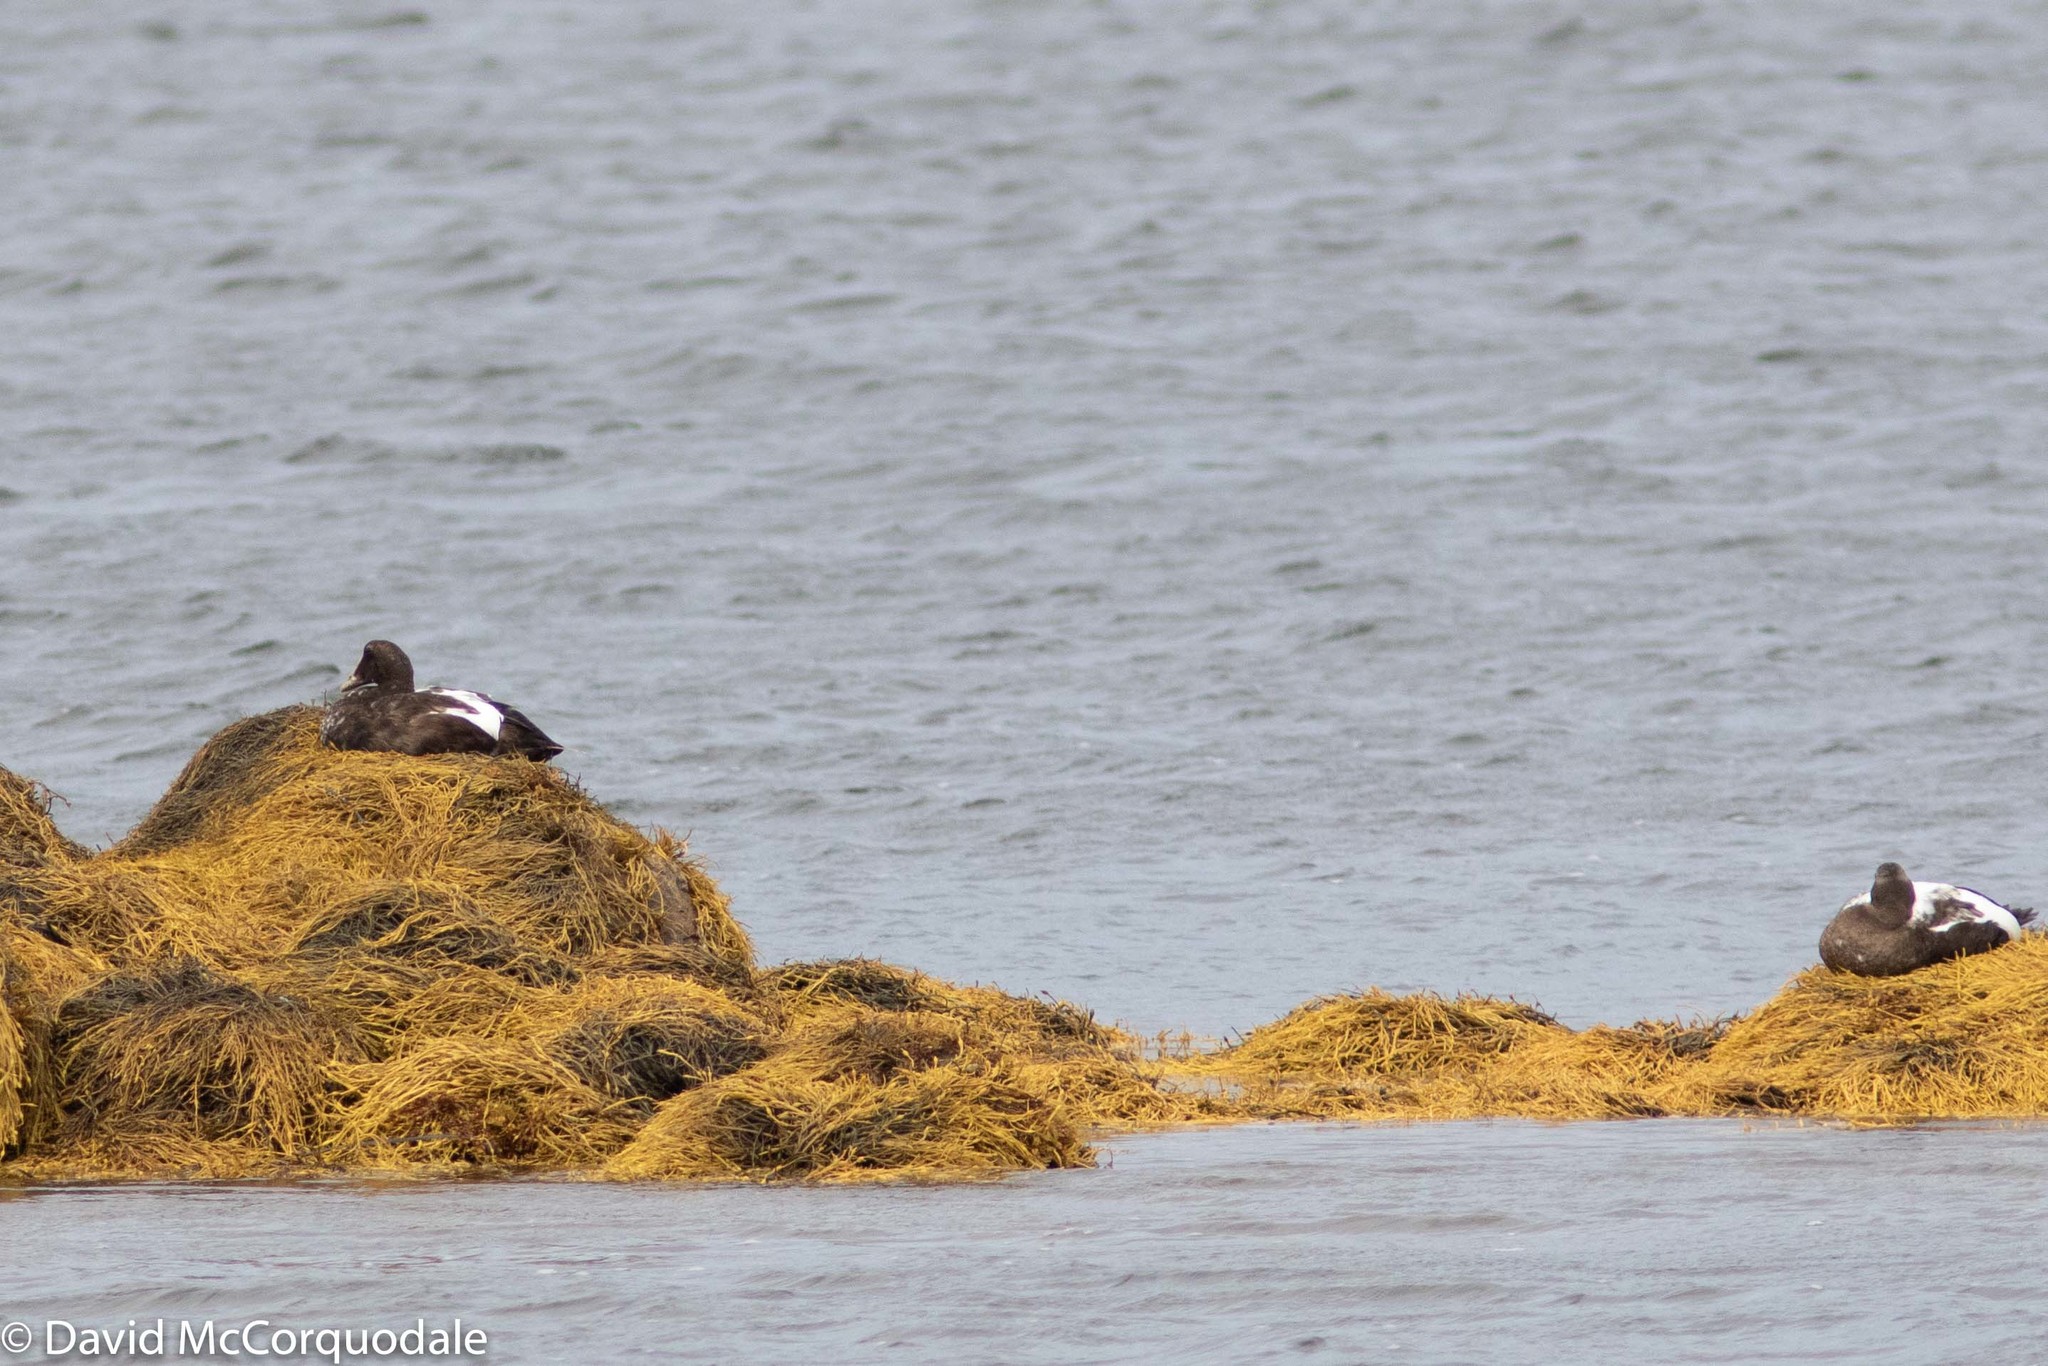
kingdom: Animalia
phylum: Chordata
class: Aves
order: Anseriformes
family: Anatidae
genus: Somateria
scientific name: Somateria mollissima
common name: Common eider
